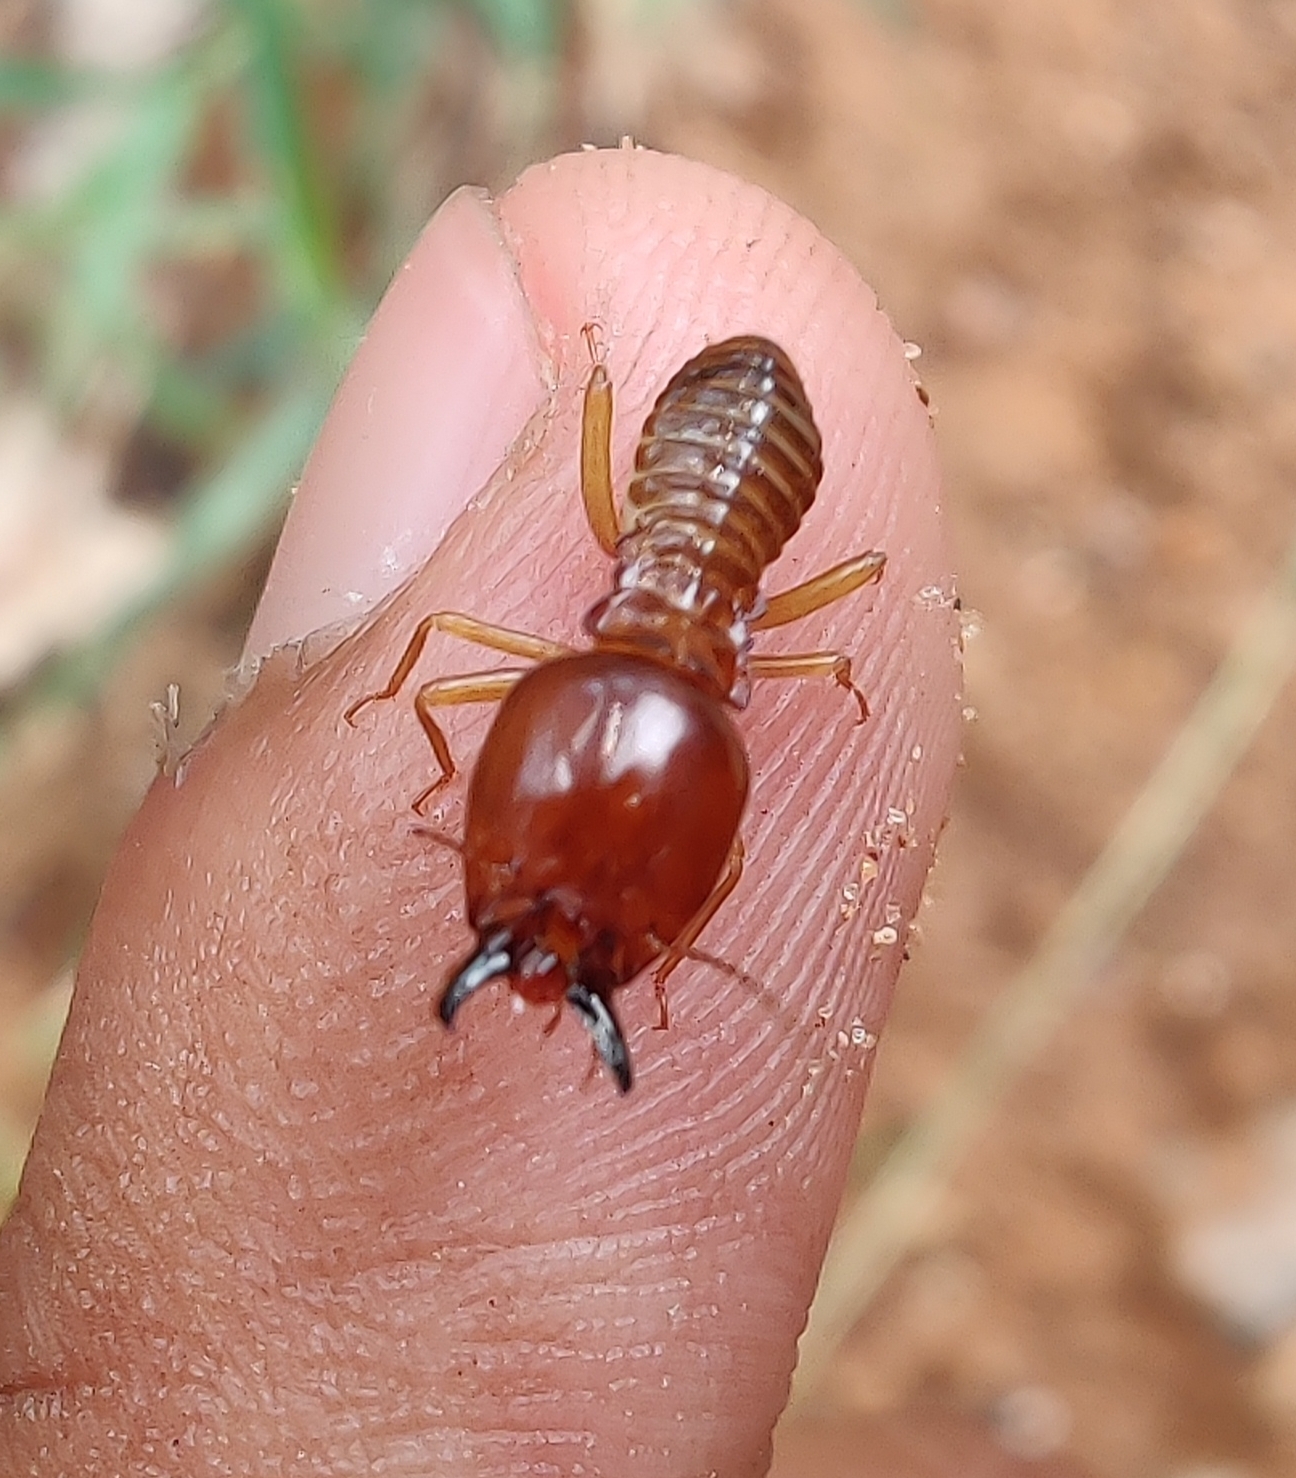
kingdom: Animalia
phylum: Arthropoda
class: Insecta
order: Blattodea
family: Termitidae
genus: Macrotermes
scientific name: Macrotermes convulsionarius
